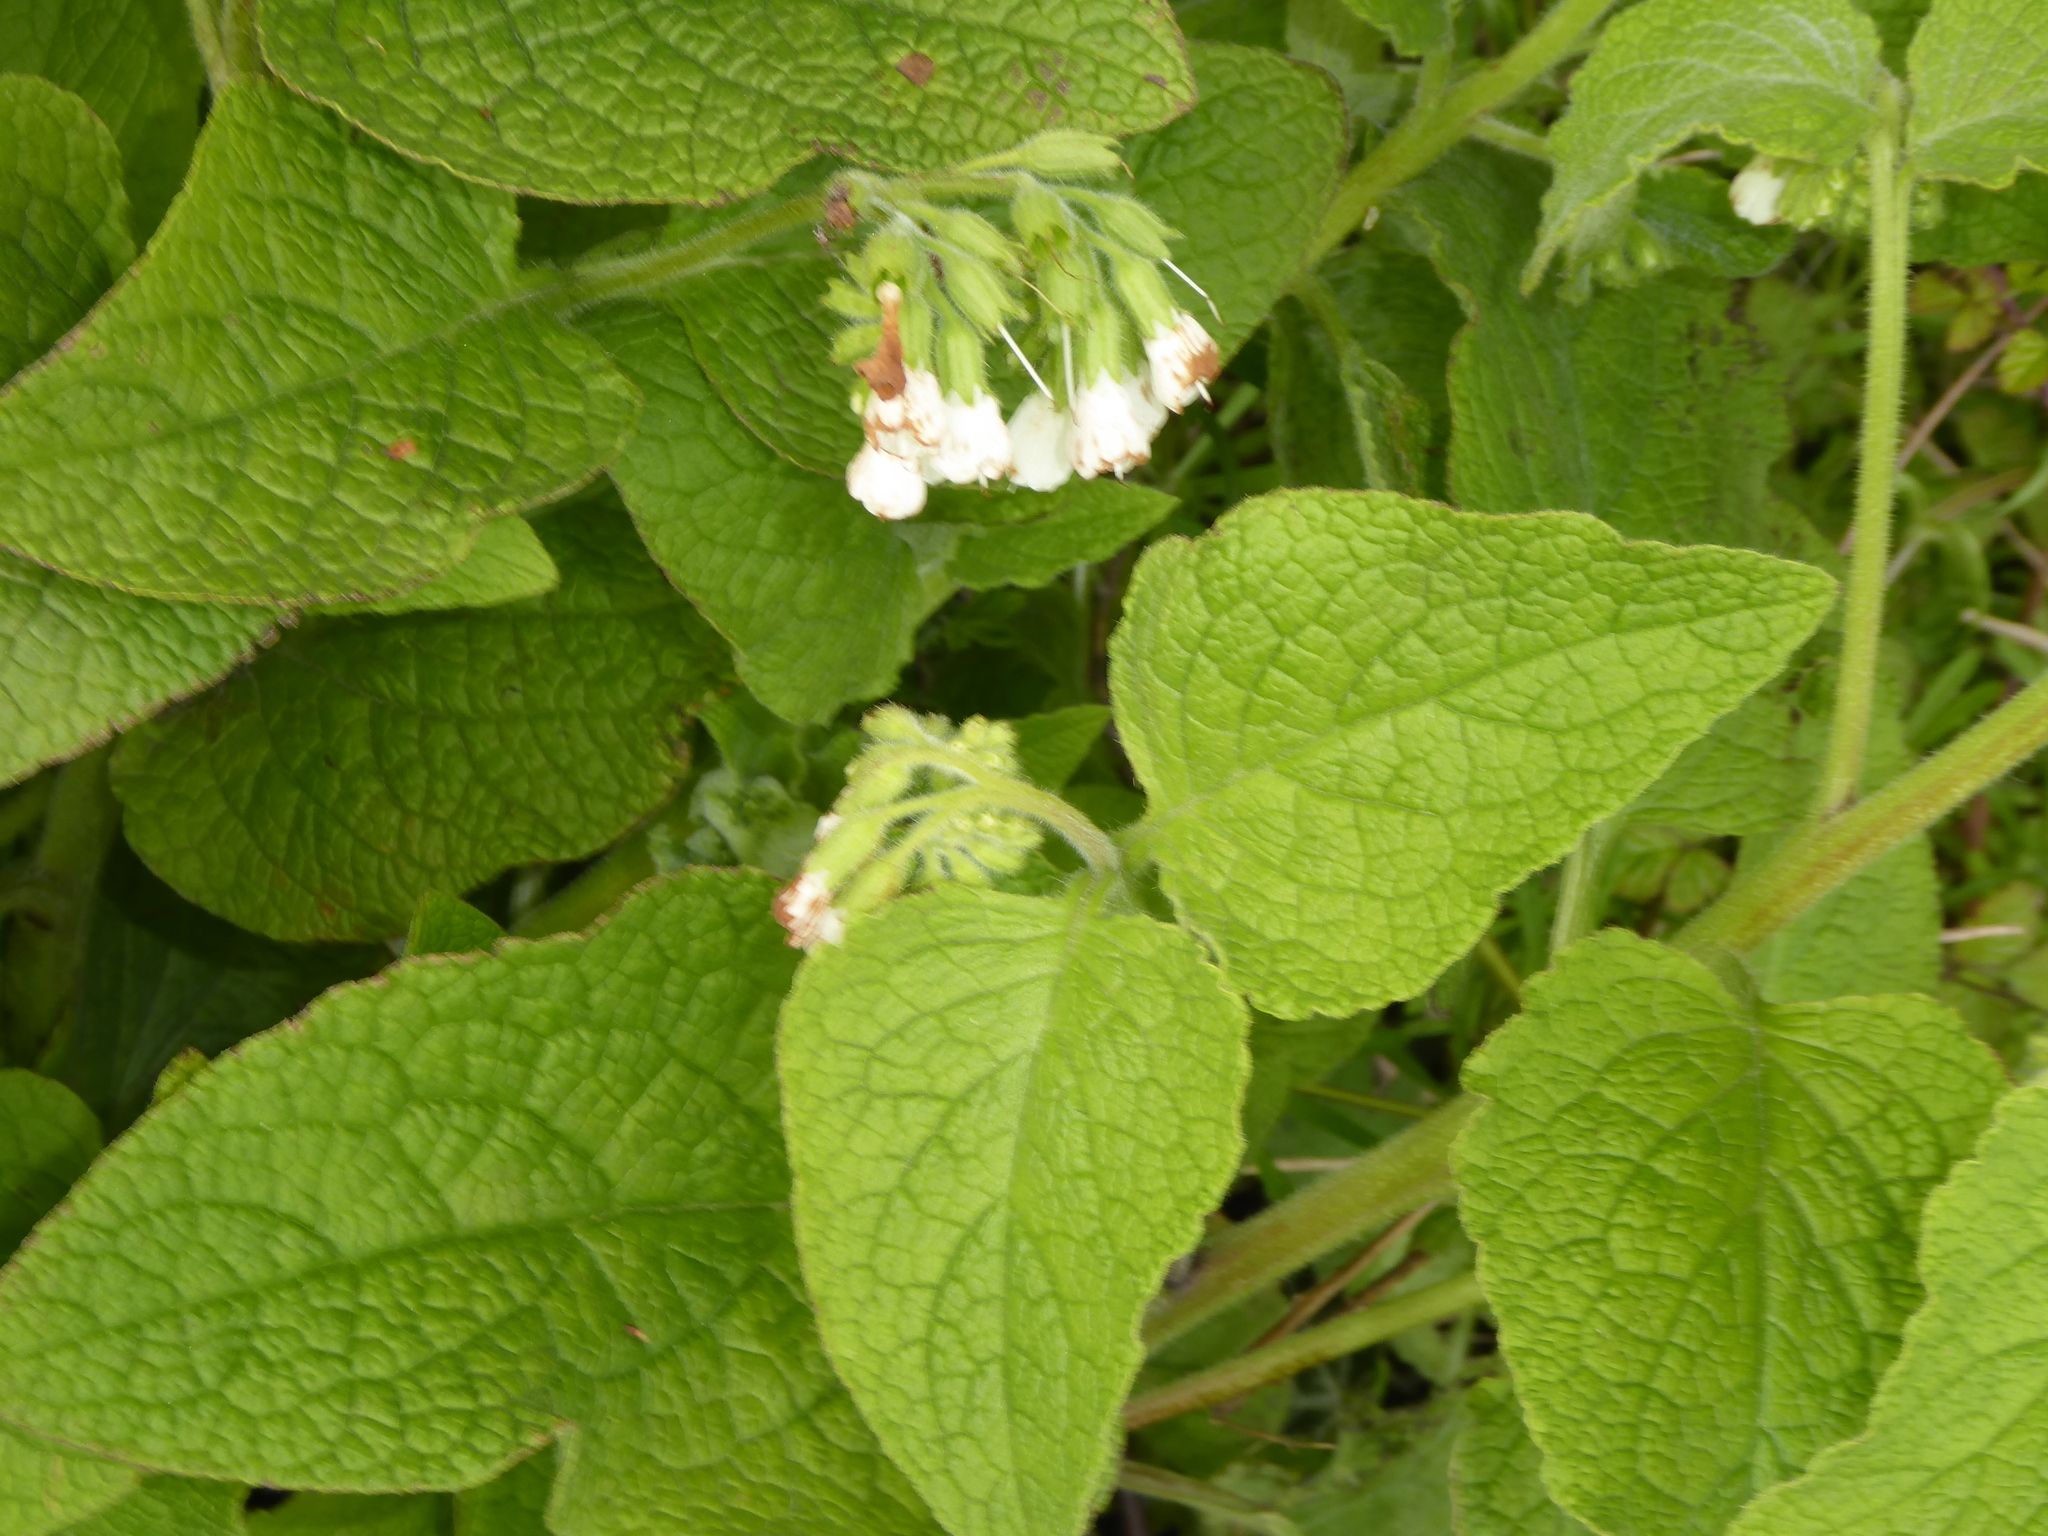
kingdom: Plantae
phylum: Tracheophyta
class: Magnoliopsida
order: Boraginales
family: Boraginaceae
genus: Symphytum
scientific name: Symphytum orientale
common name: White comfrey
